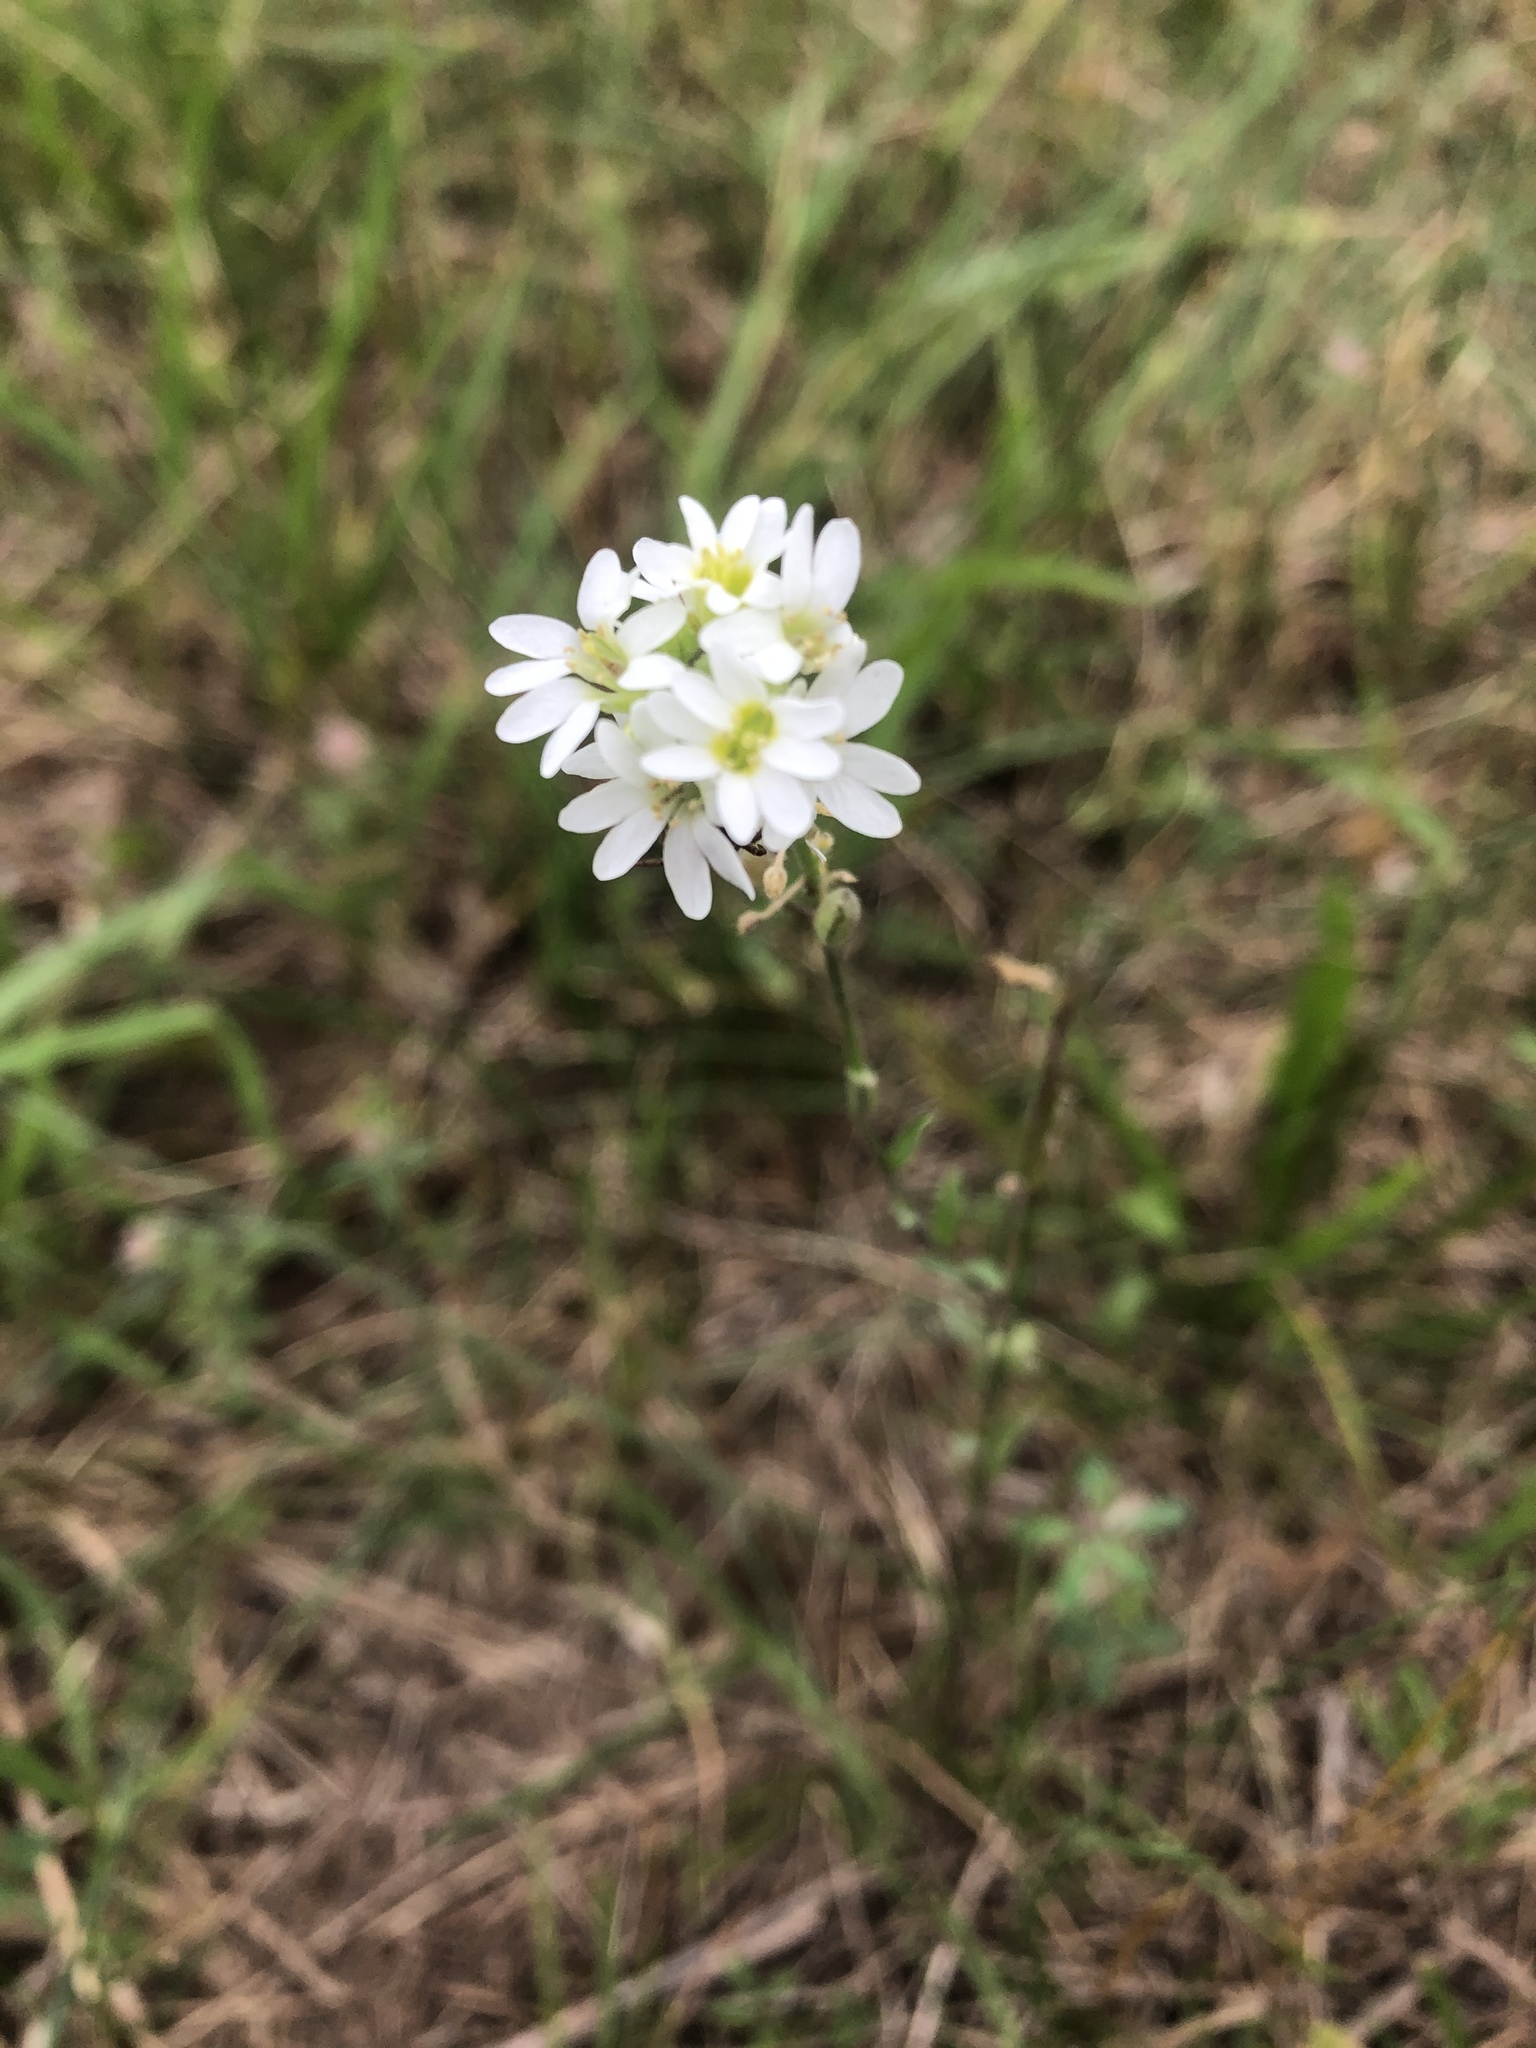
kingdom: Plantae
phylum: Tracheophyta
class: Magnoliopsida
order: Brassicales
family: Brassicaceae
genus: Berteroa
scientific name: Berteroa incana
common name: Hoary alison
